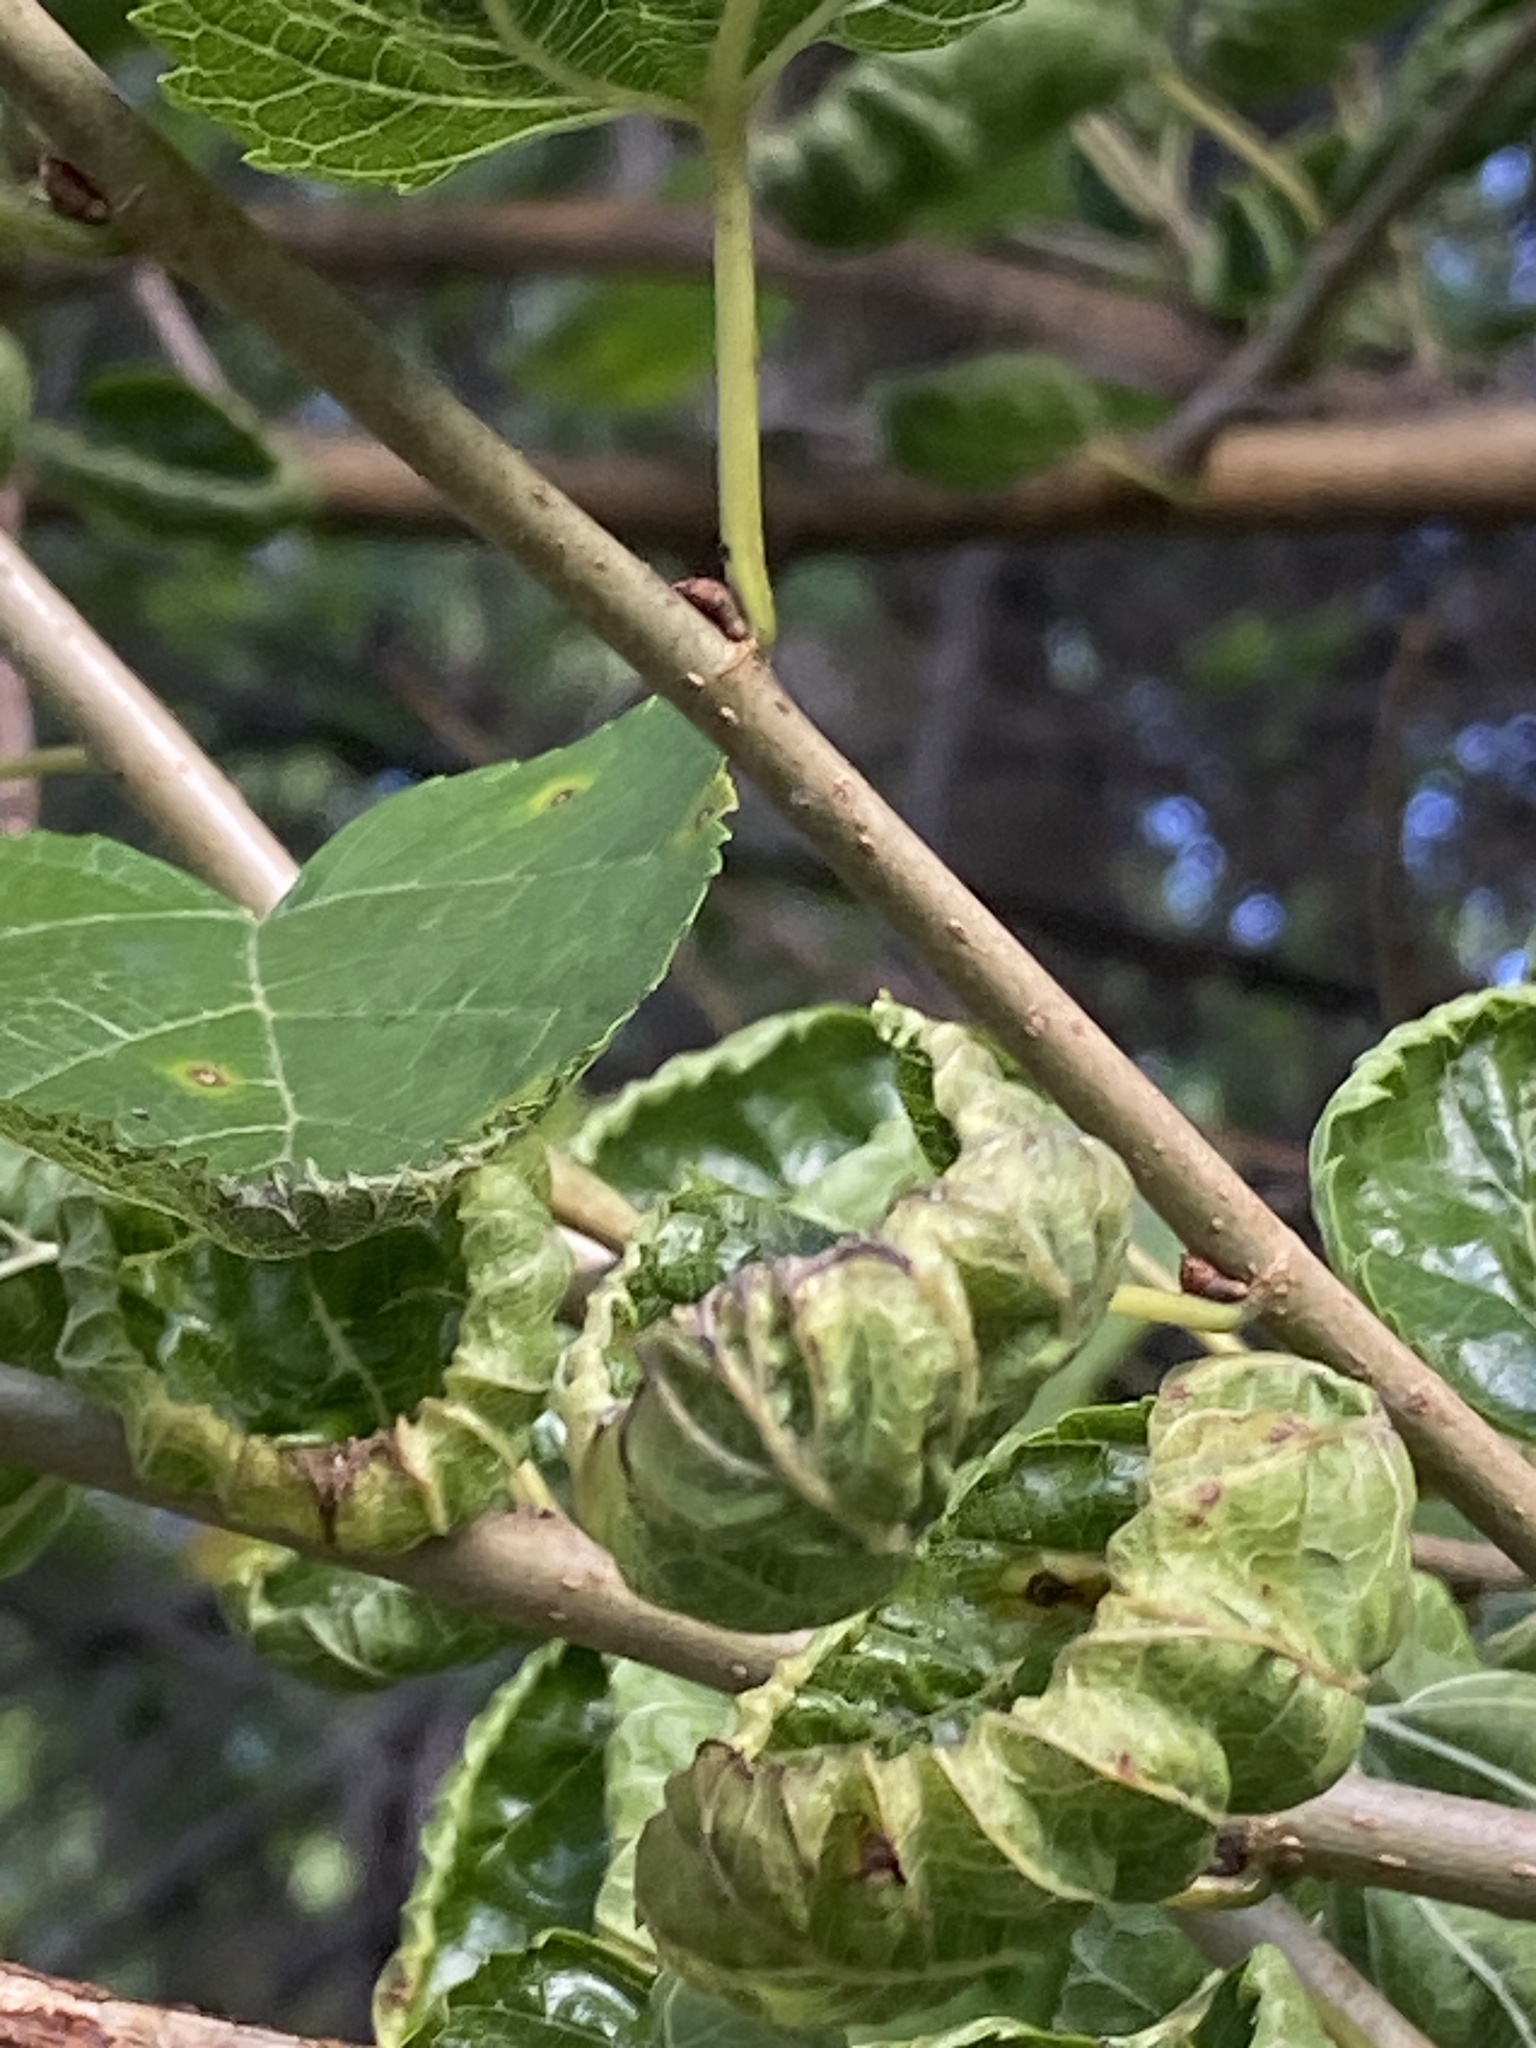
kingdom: Plantae
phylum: Tracheophyta
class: Magnoliopsida
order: Rosales
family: Moraceae
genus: Morus
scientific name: Morus alba
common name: White mulberry
